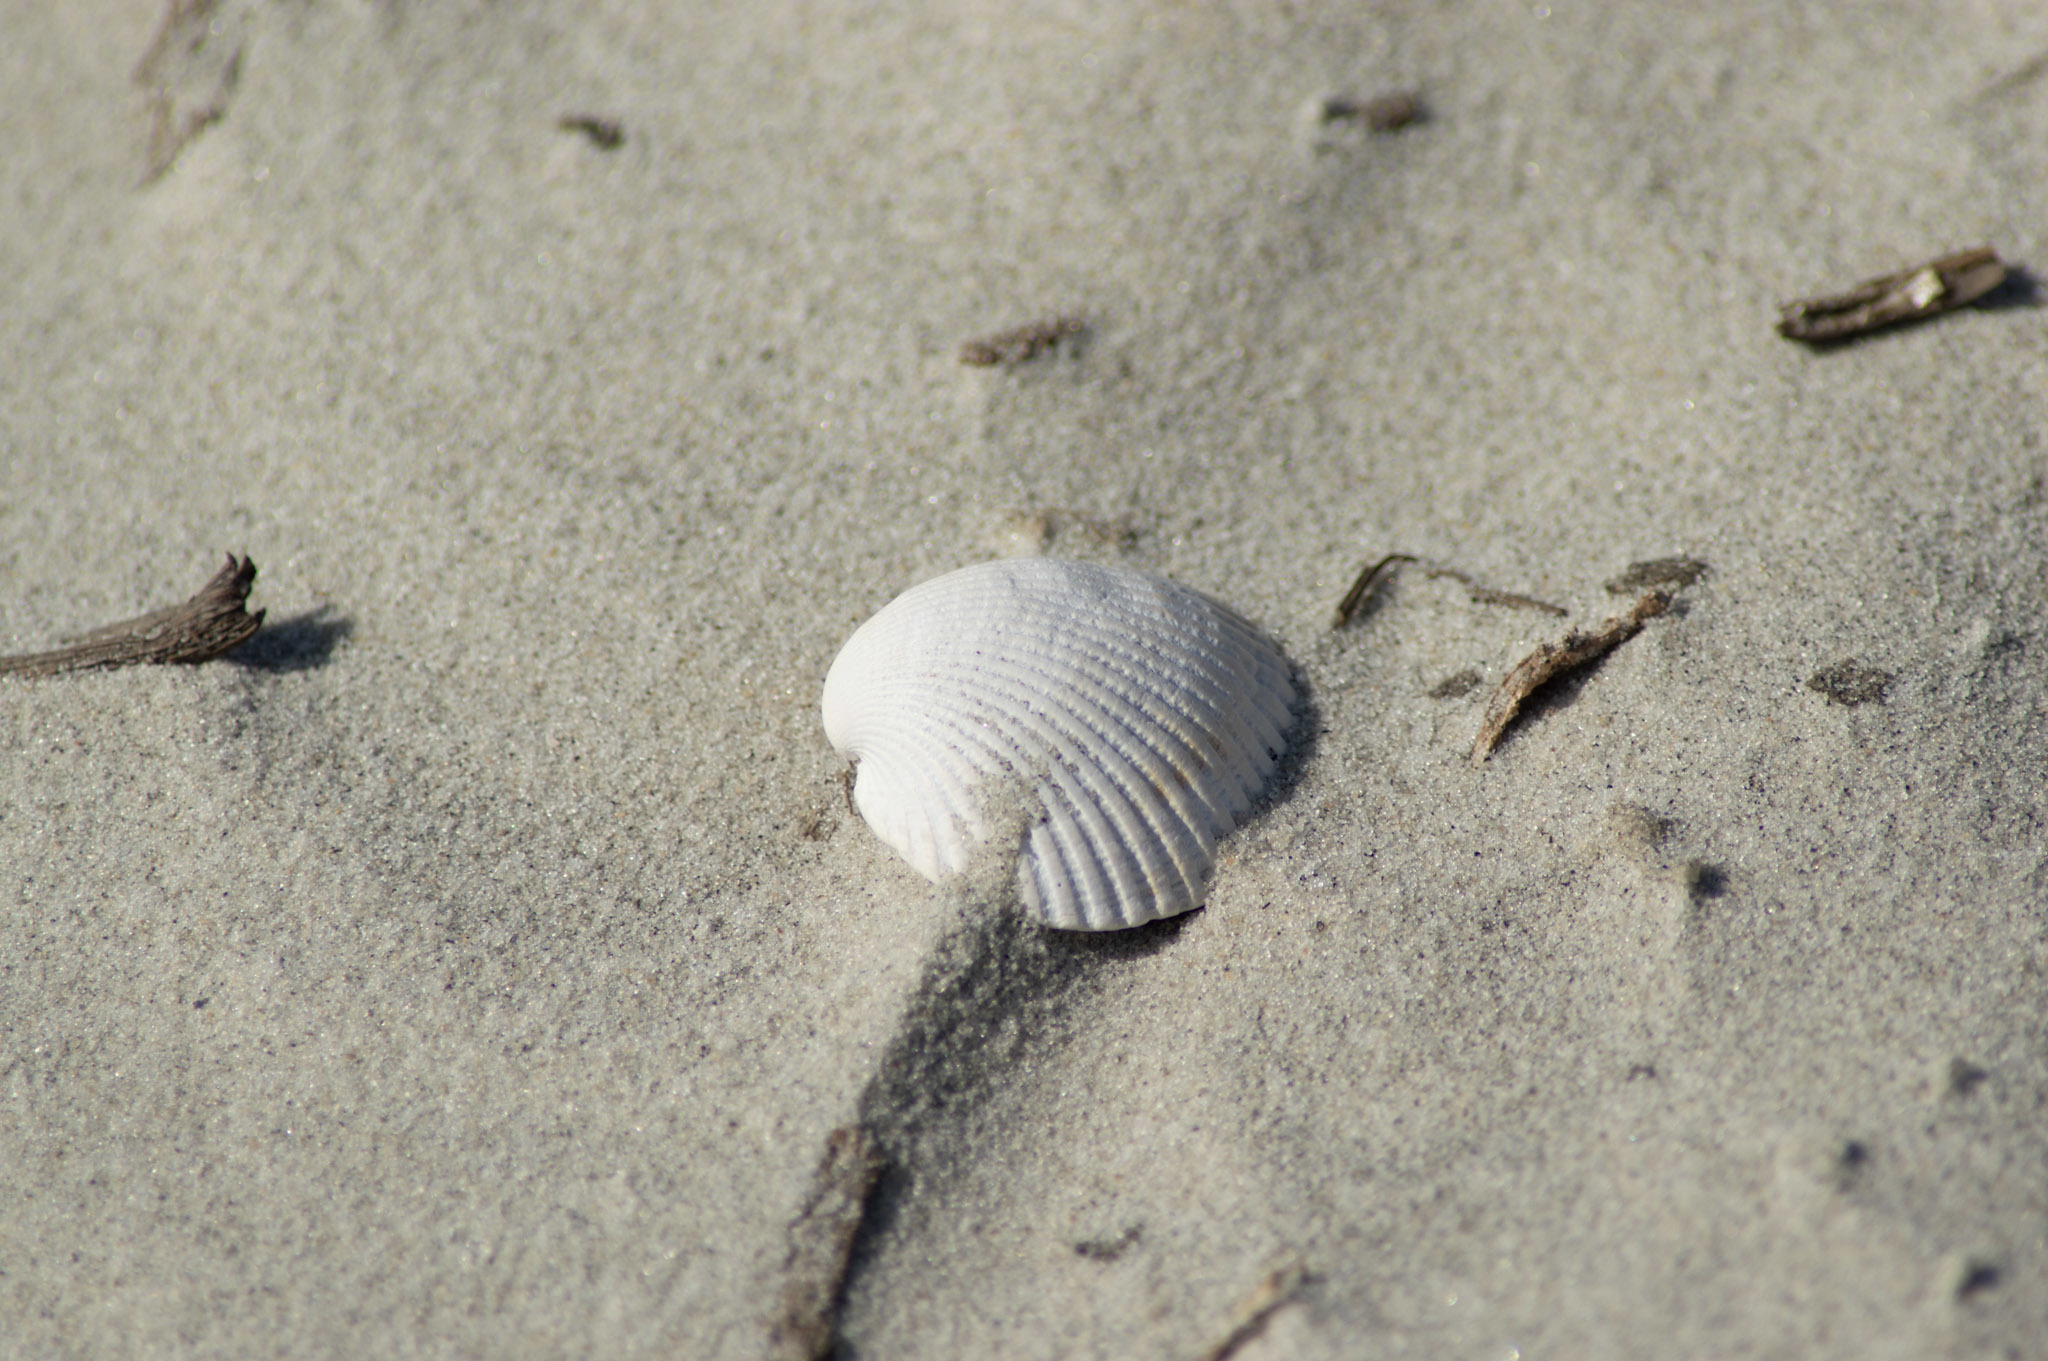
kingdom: Animalia
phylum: Mollusca
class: Bivalvia
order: Arcida
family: Arcidae
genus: Lunarca
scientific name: Lunarca ovalis
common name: Blood ark
